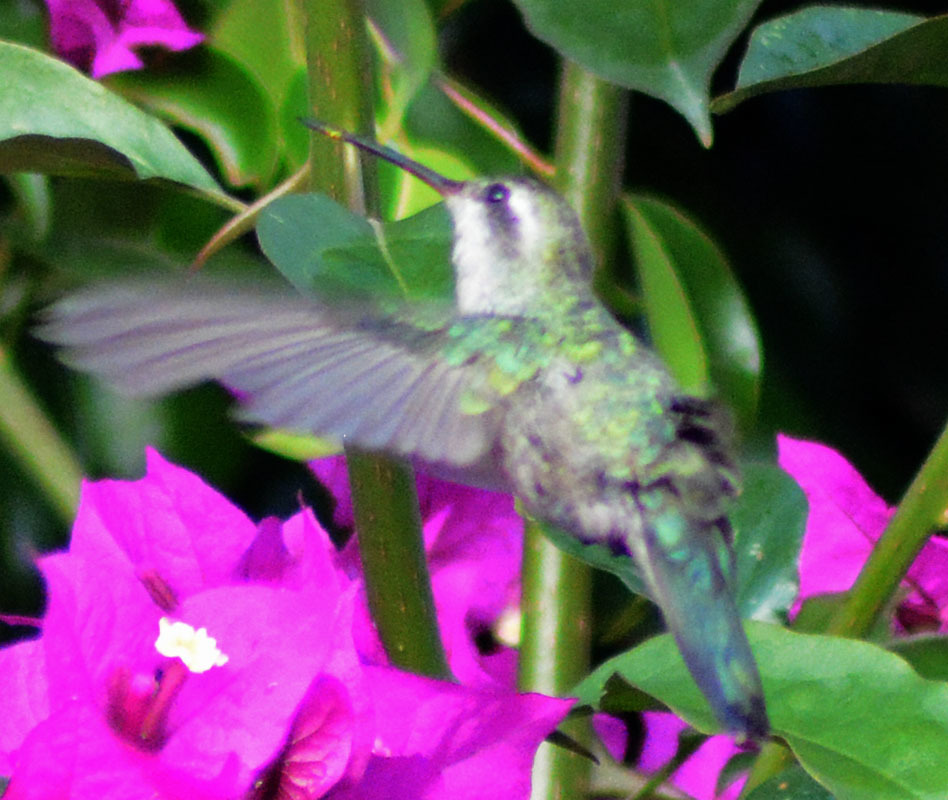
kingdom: Animalia
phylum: Chordata
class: Aves
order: Apodiformes
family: Trochilidae
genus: Cynanthus
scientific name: Cynanthus latirostris
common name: Broad-billed hummingbird
